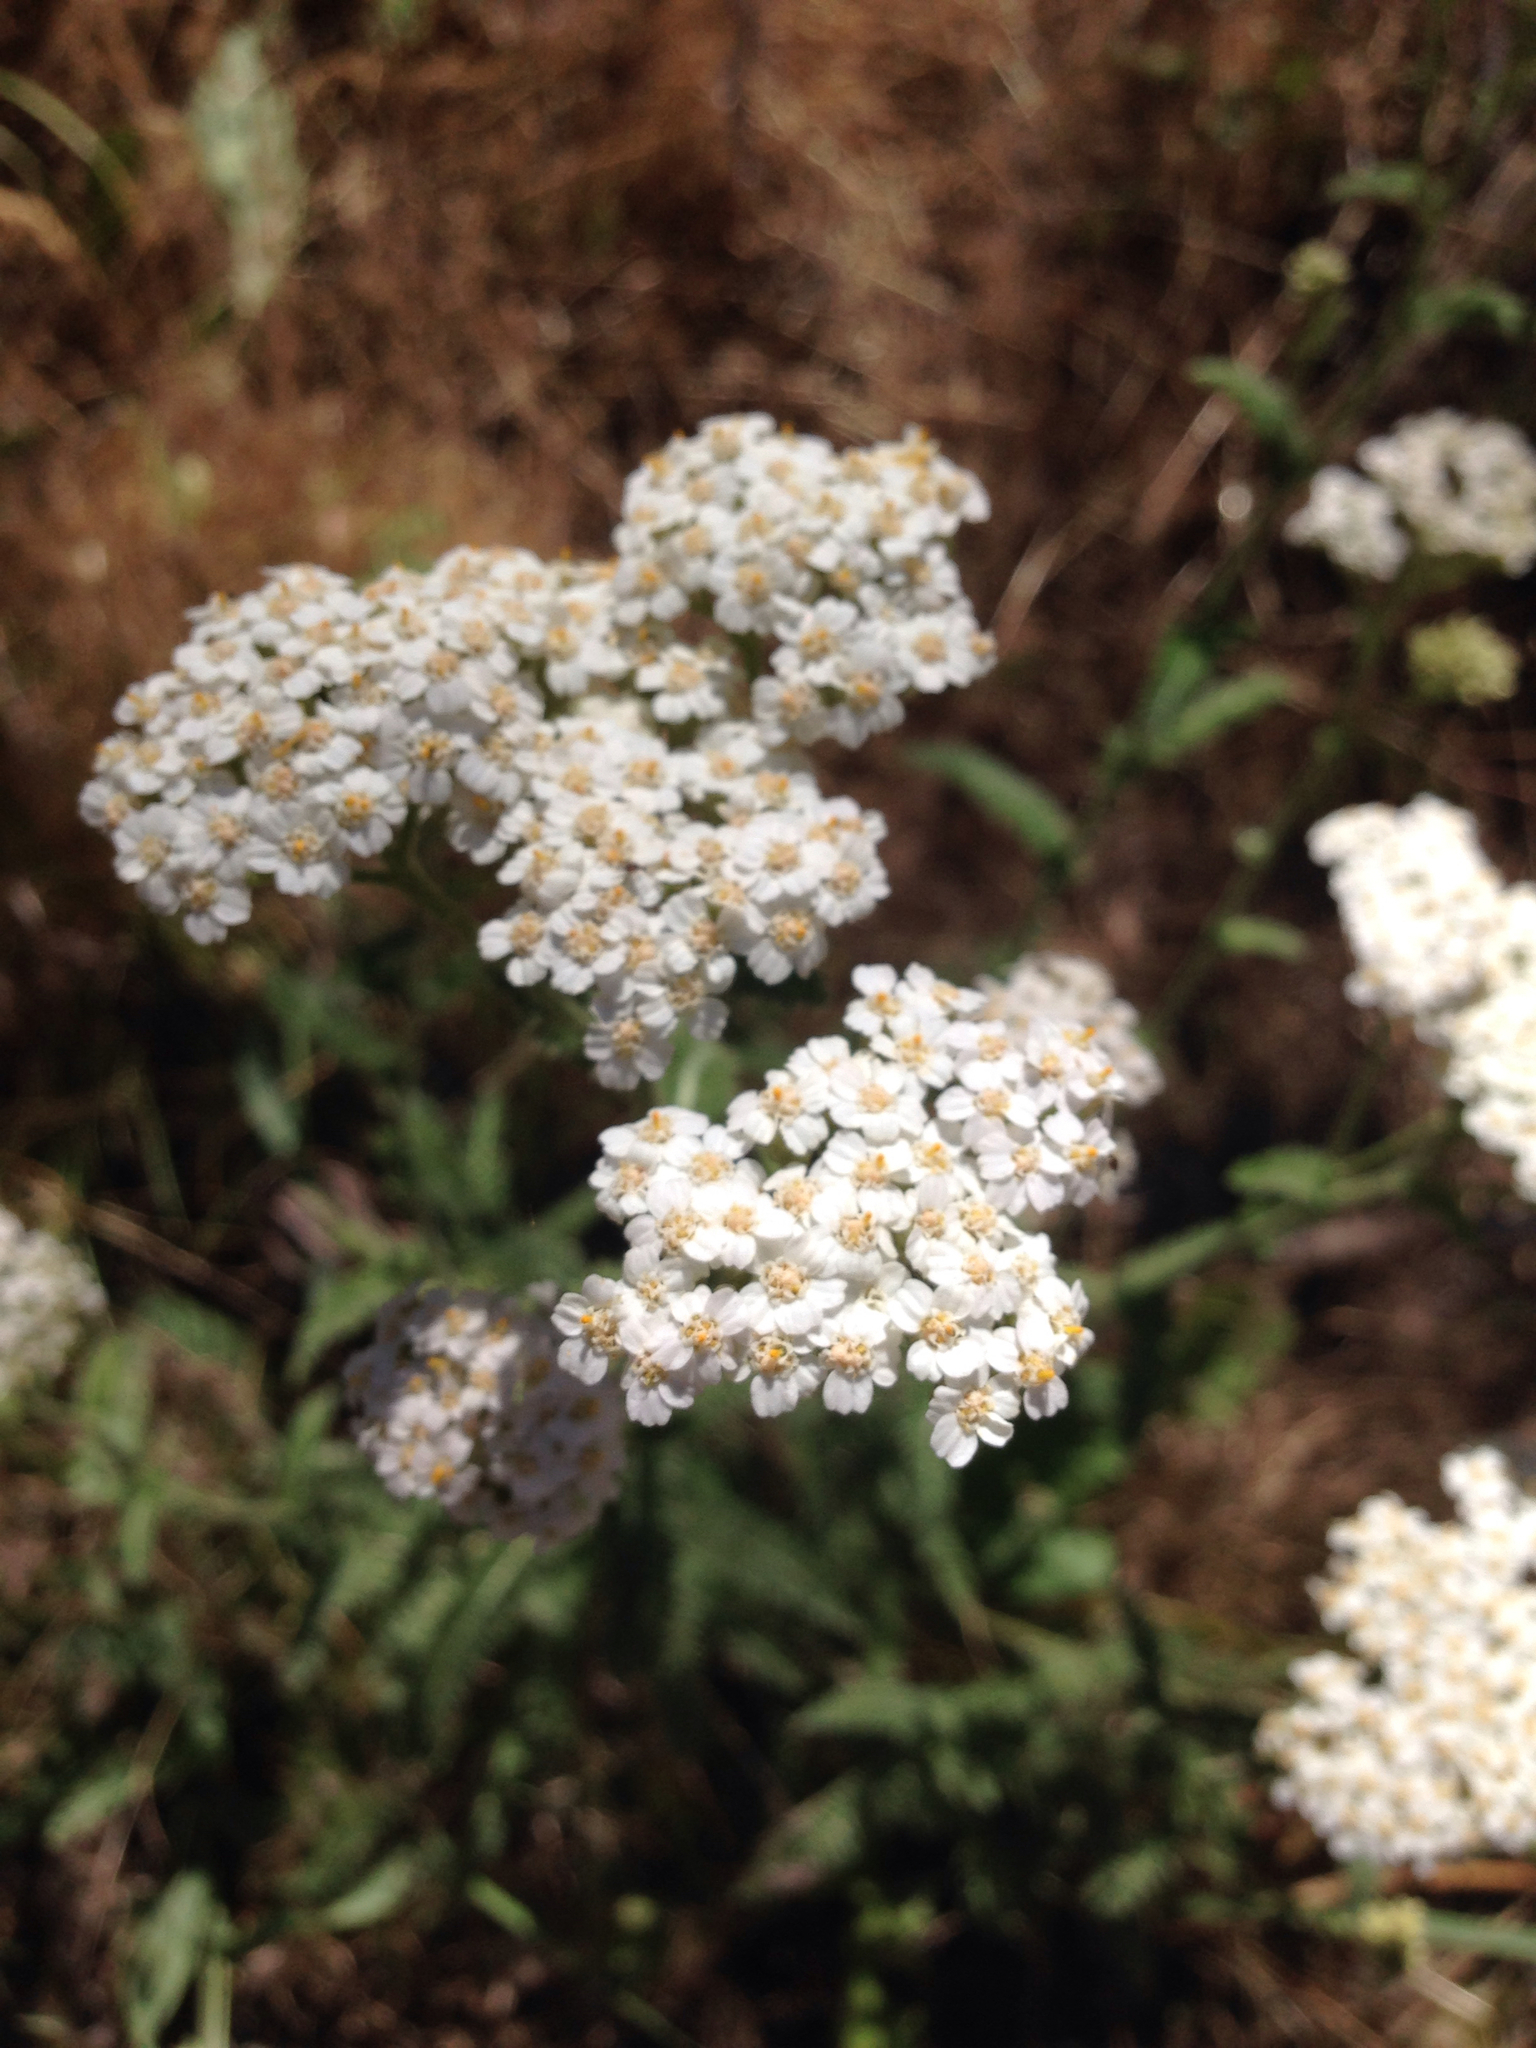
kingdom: Plantae
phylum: Tracheophyta
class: Magnoliopsida
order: Asterales
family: Asteraceae
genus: Achillea
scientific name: Achillea millefolium
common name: Yarrow
